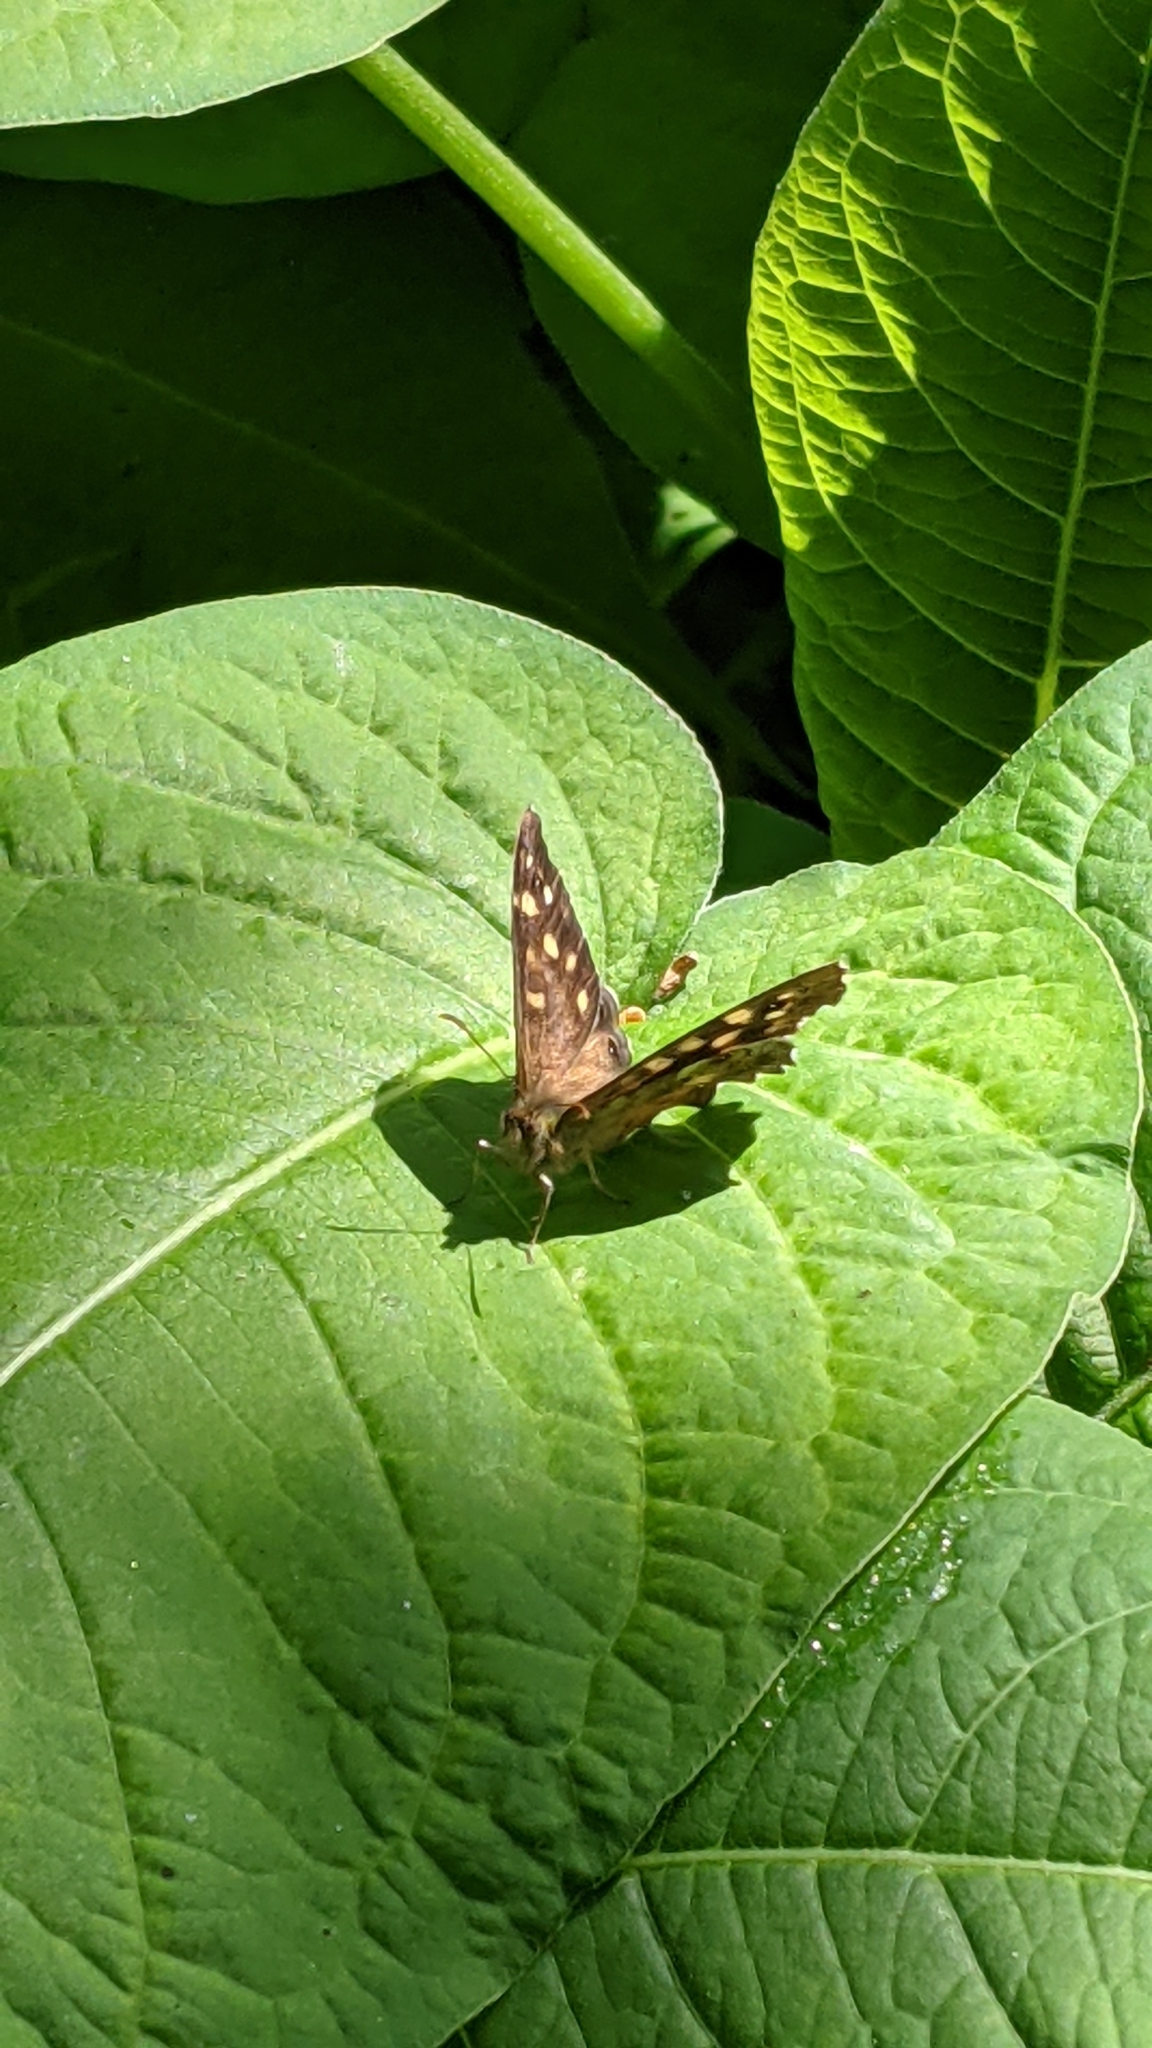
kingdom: Animalia
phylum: Arthropoda
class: Insecta
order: Lepidoptera
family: Nymphalidae
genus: Pararge
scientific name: Pararge aegeria
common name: Speckled wood
